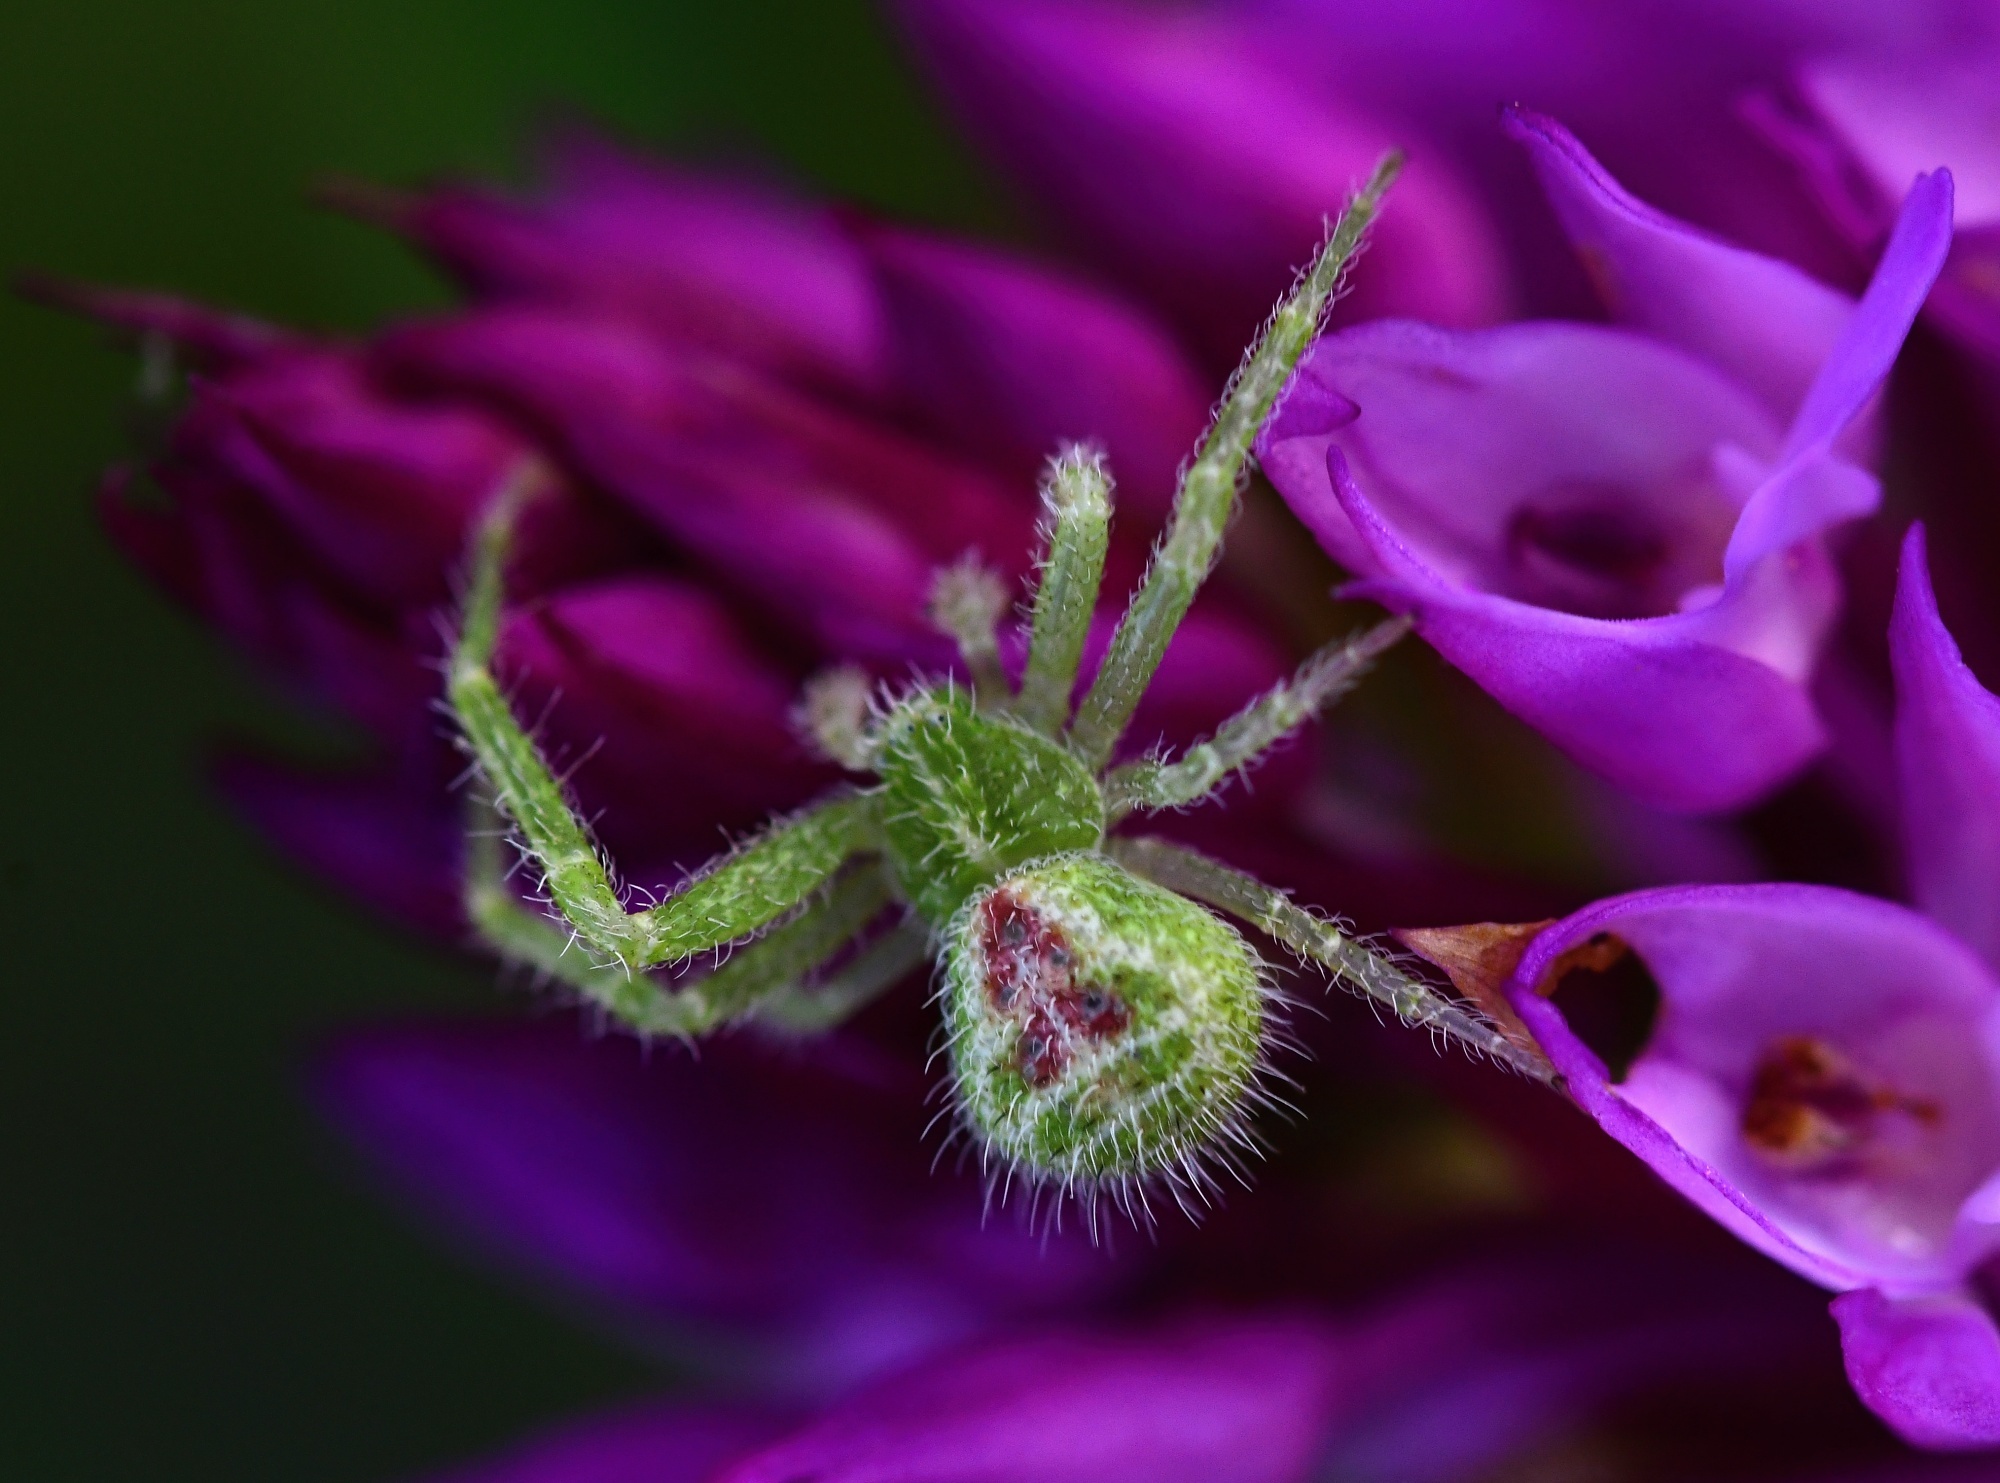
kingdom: Animalia
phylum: Arthropoda
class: Arachnida
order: Araneae
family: Thomisidae
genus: Heriaeus
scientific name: Heriaeus simoni
